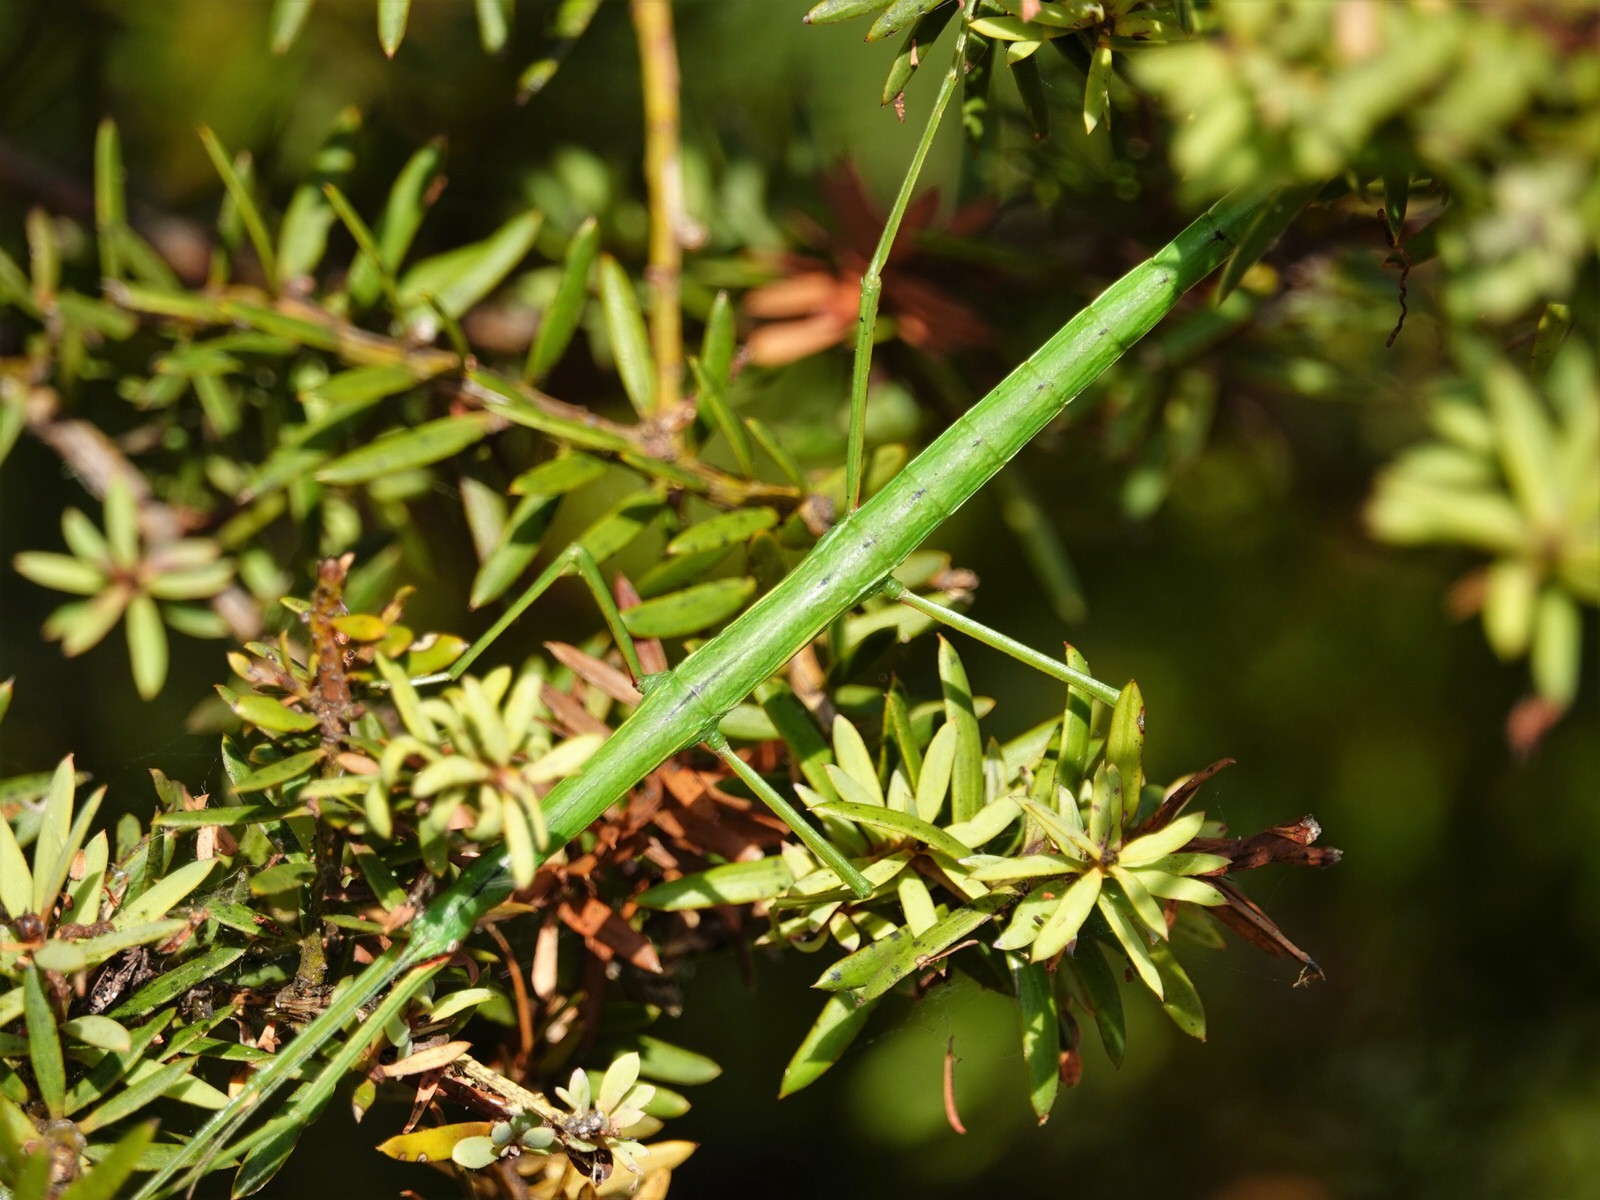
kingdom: Animalia
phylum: Arthropoda
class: Insecta
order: Phasmida
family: Phasmatidae
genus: Clitarchus
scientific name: Clitarchus hookeri
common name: Smooth stick insect
